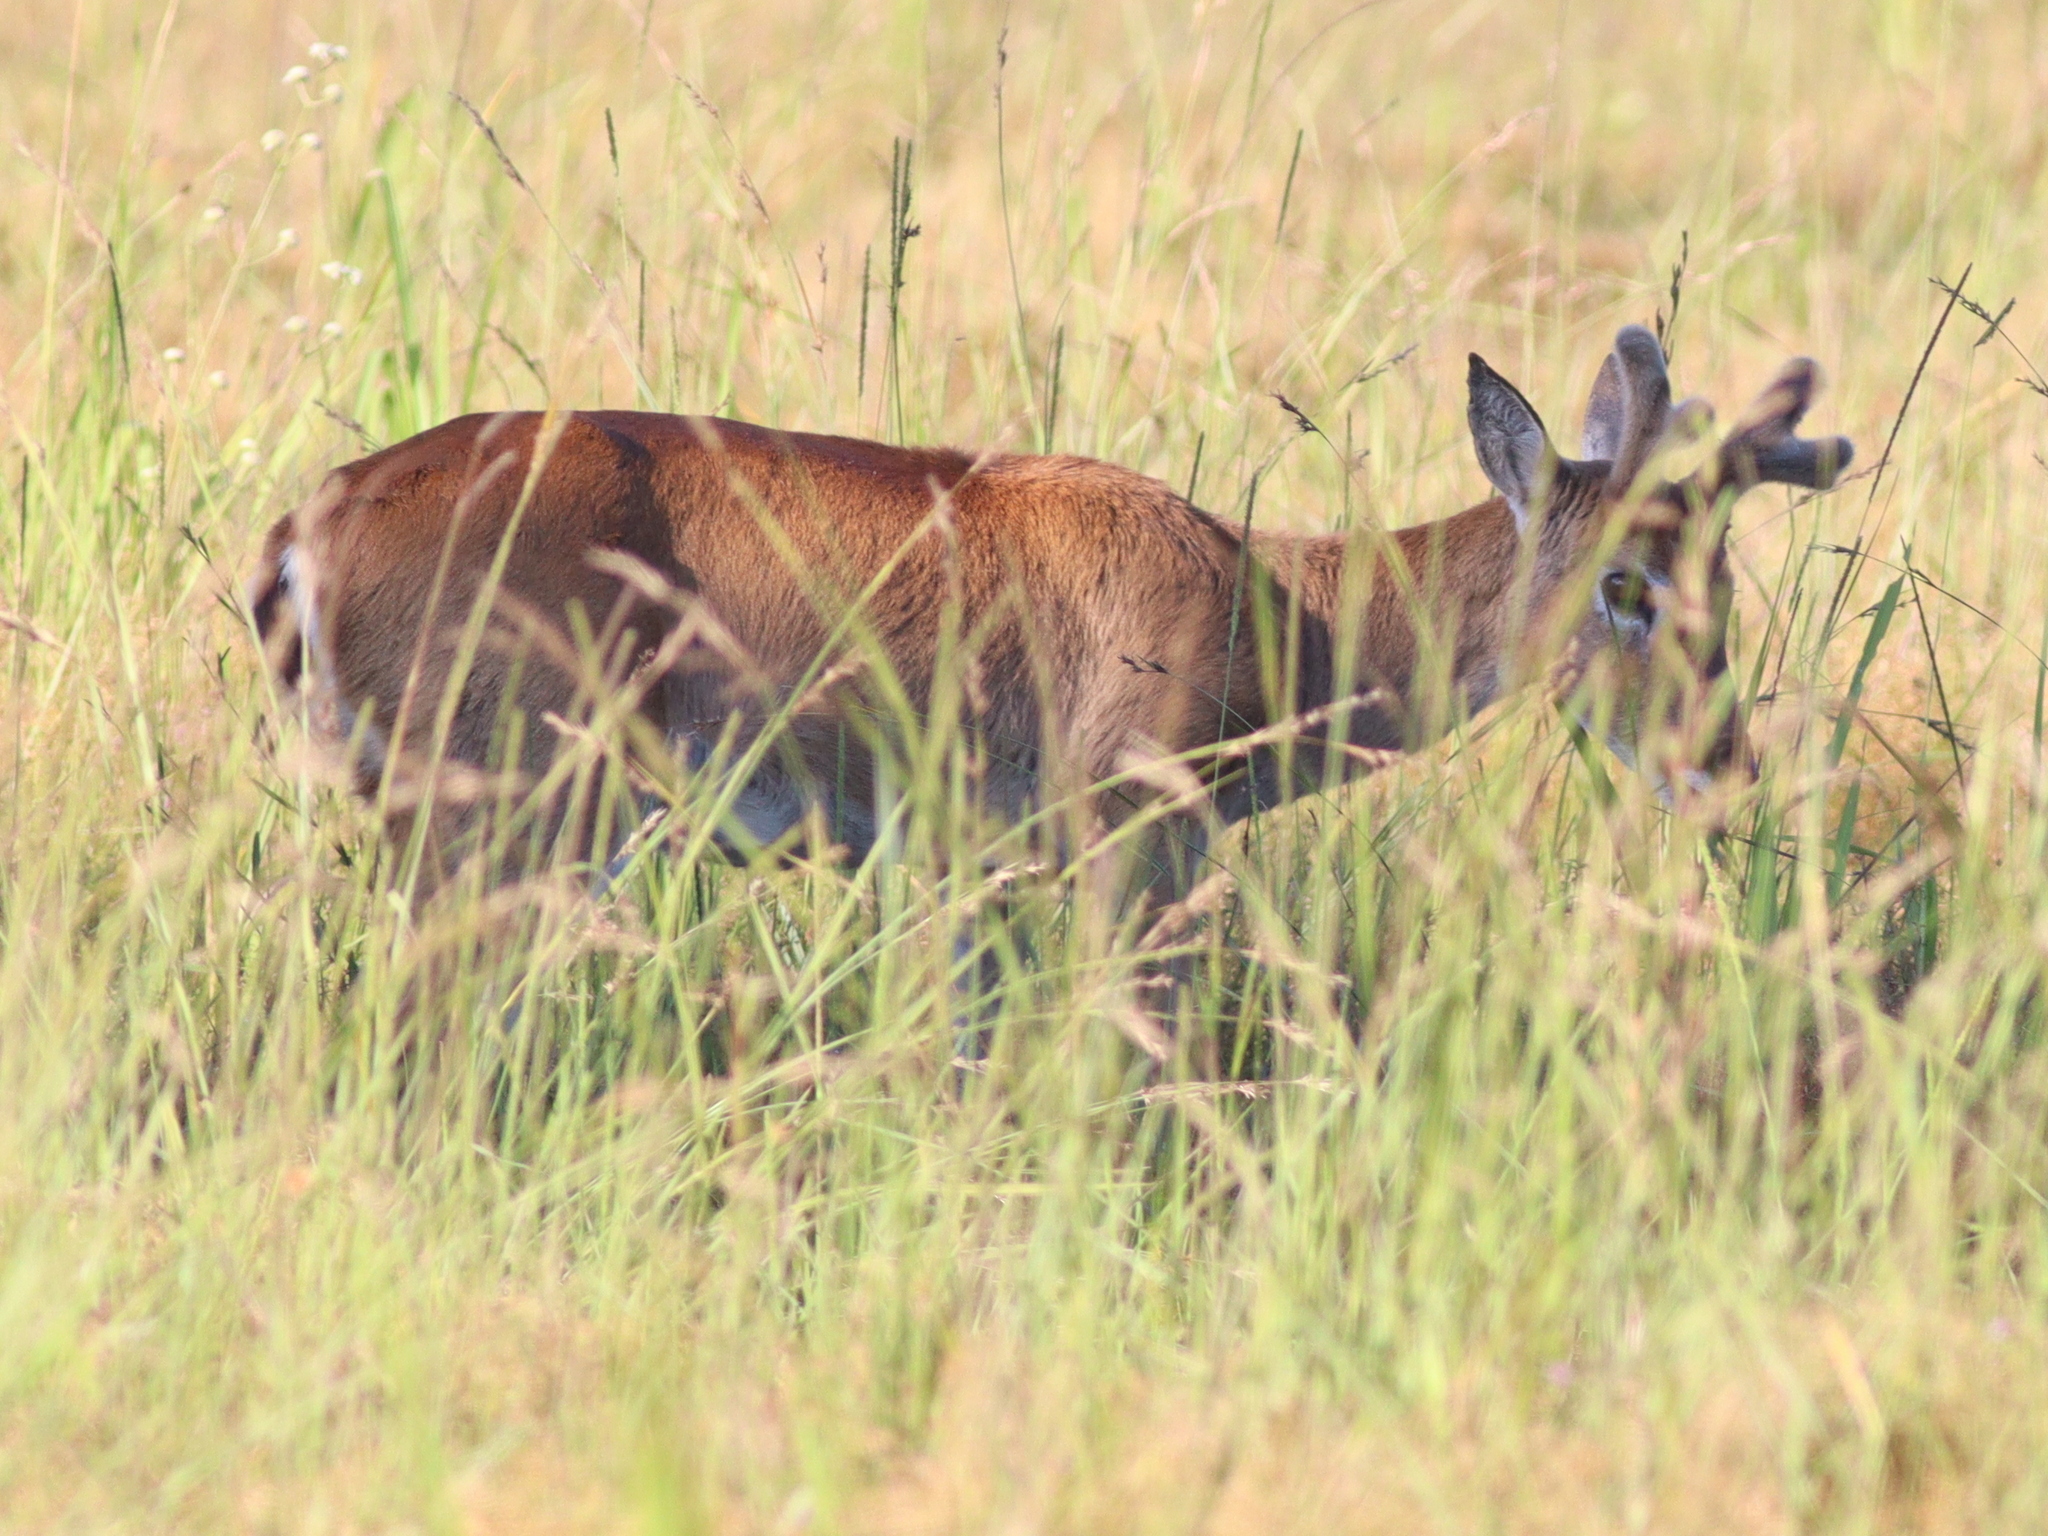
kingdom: Animalia
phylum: Chordata
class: Mammalia
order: Artiodactyla
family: Cervidae
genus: Ozotoceros
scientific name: Ozotoceros bezoarticus
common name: Pampas deer
